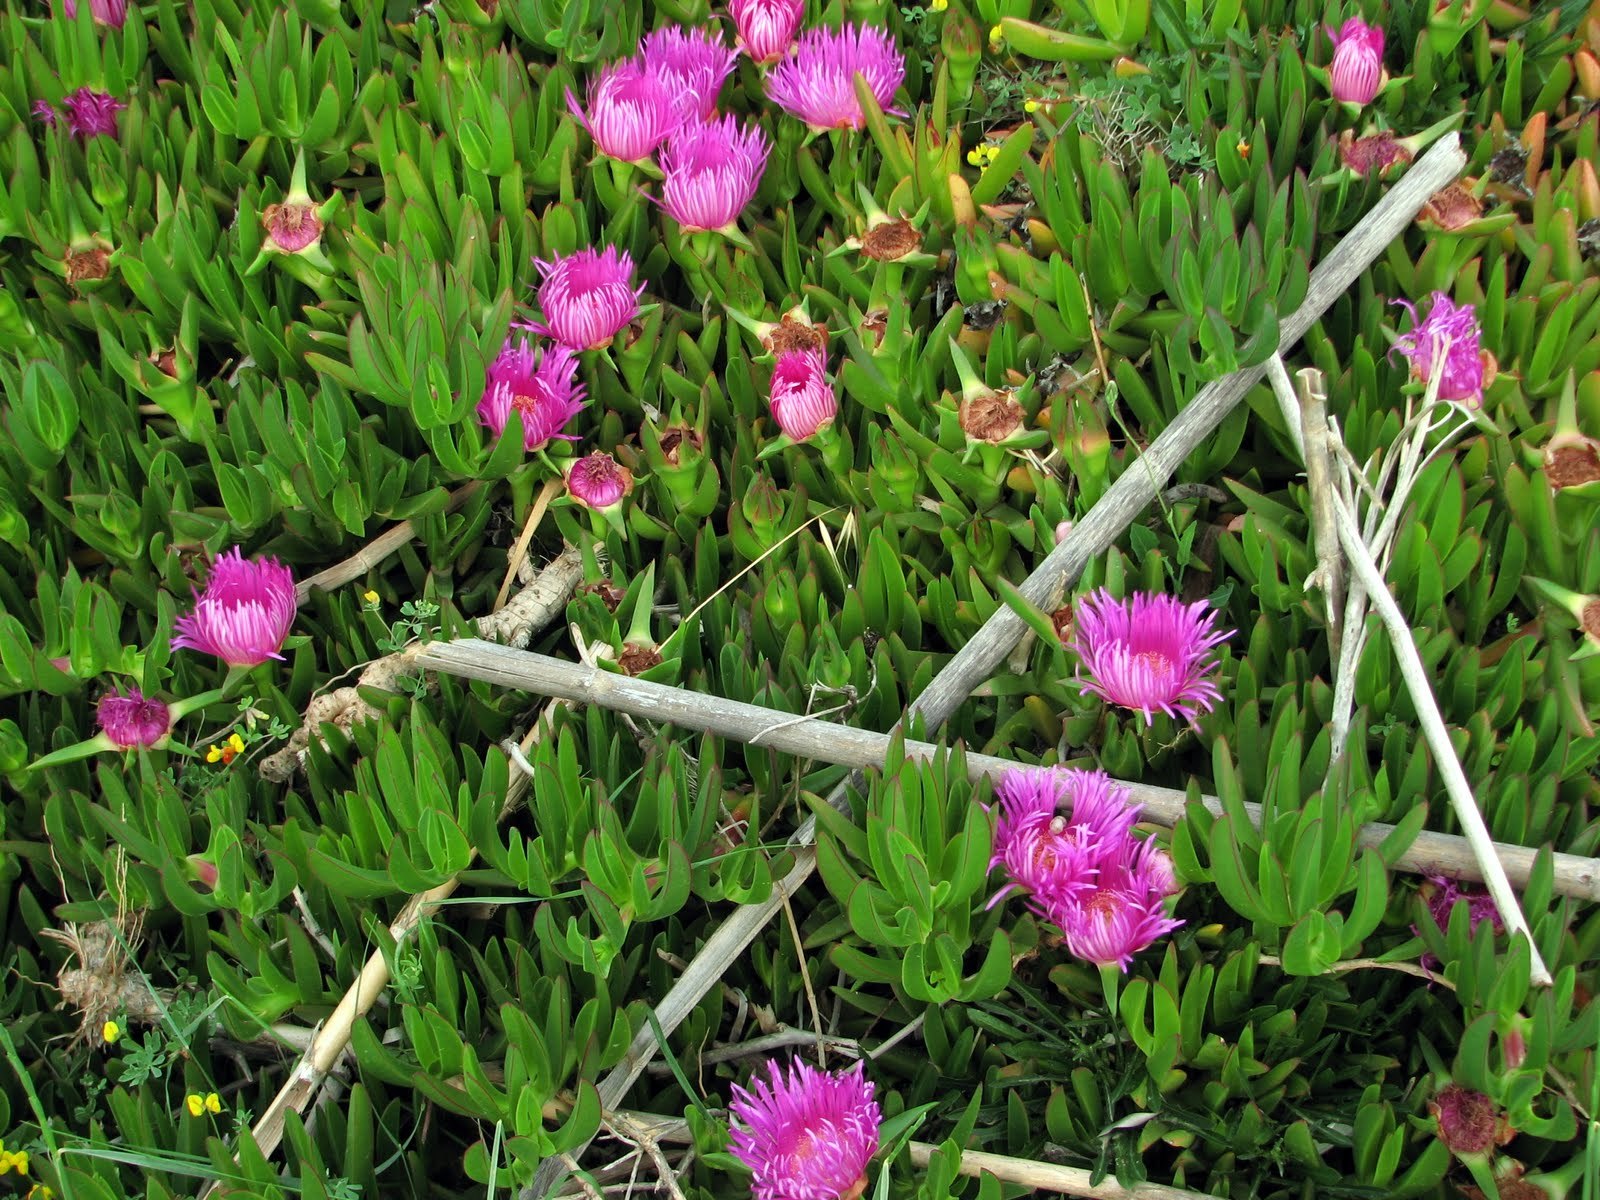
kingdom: Plantae
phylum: Tracheophyta
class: Magnoliopsida
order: Caryophyllales
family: Aizoaceae
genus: Carpobrotus
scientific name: Carpobrotus acinaciformis
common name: Sally-my-handsome
